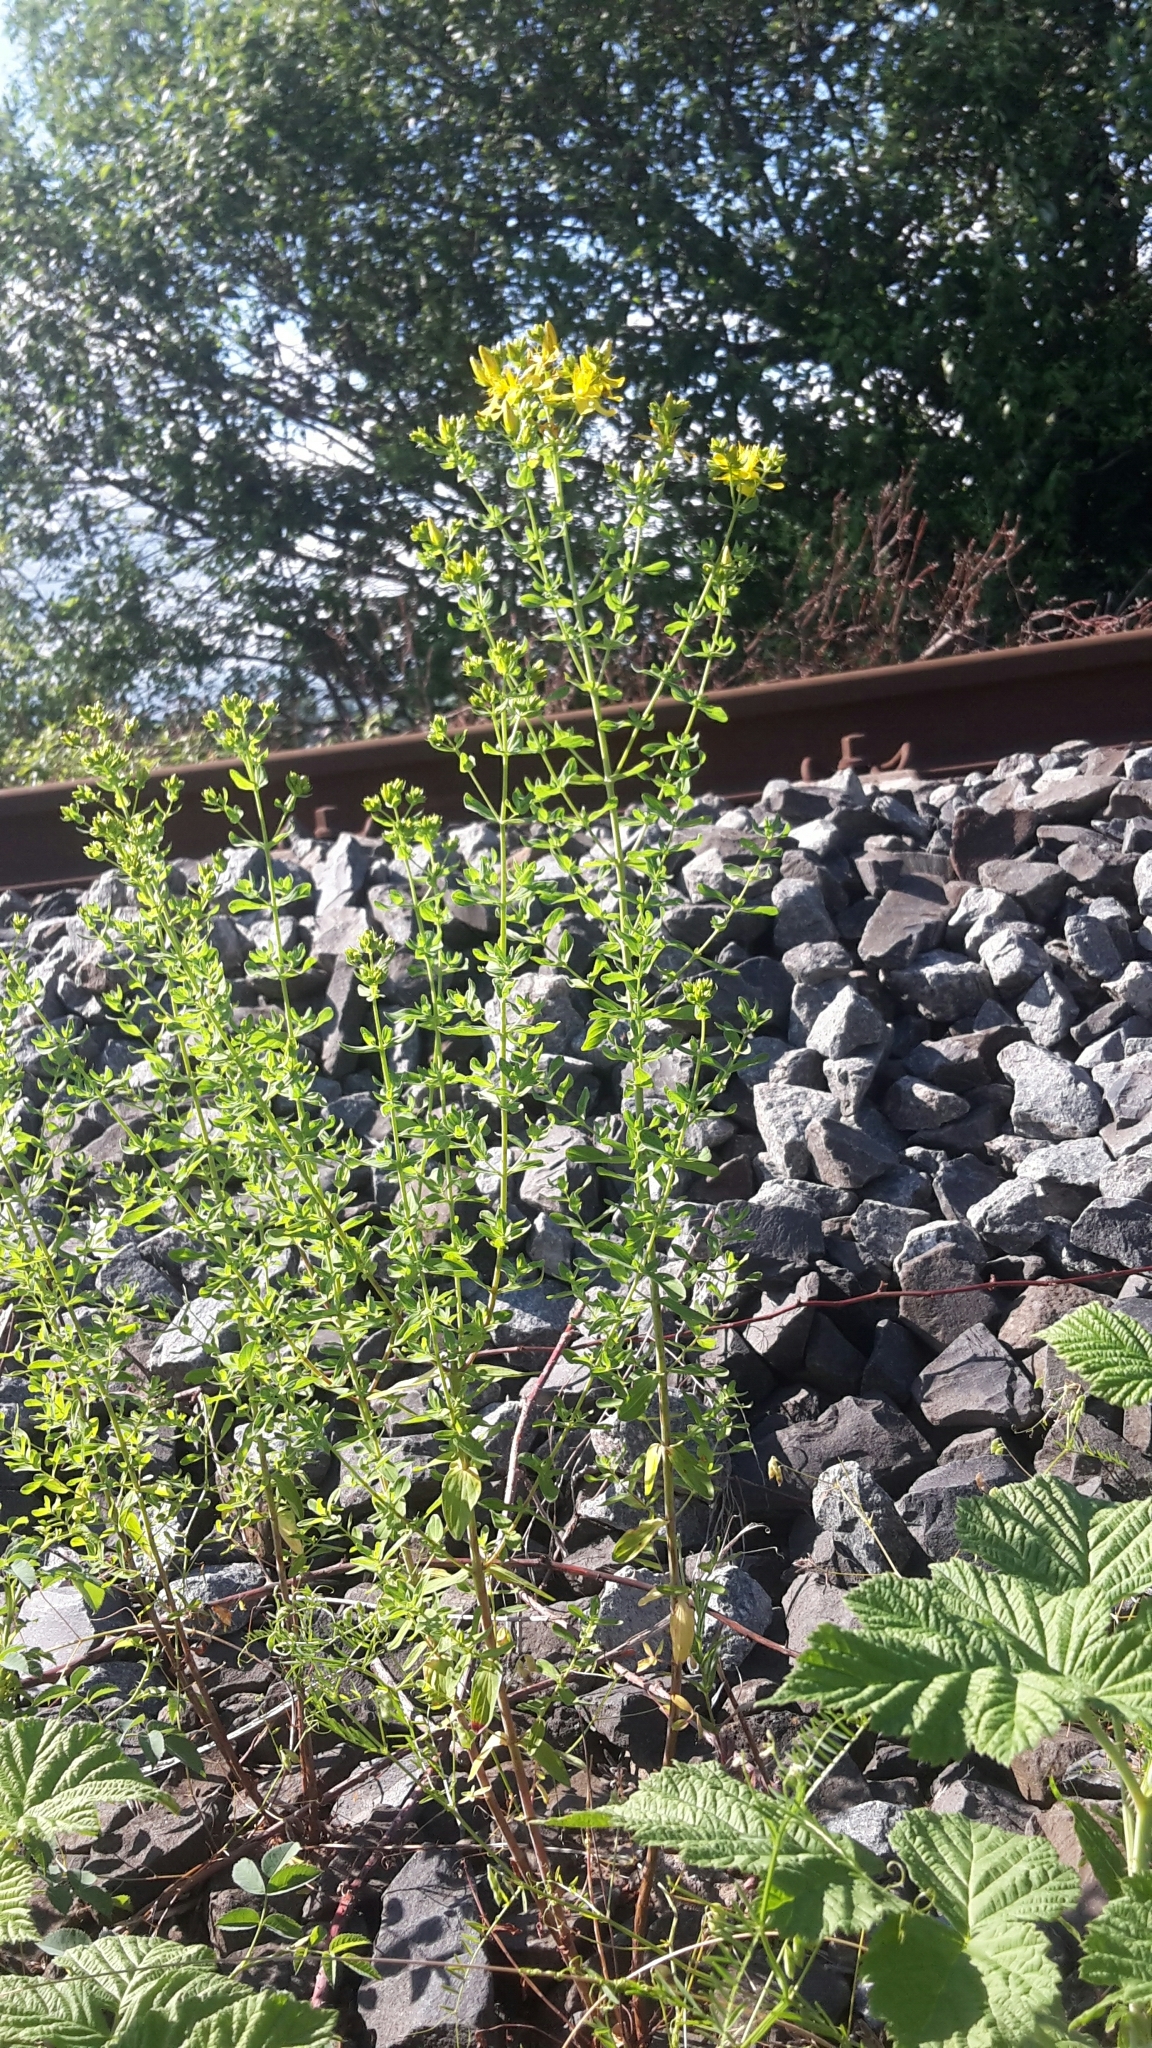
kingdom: Plantae
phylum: Tracheophyta
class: Magnoliopsida
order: Malpighiales
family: Hypericaceae
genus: Hypericum
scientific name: Hypericum perforatum
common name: Common st. johnswort
